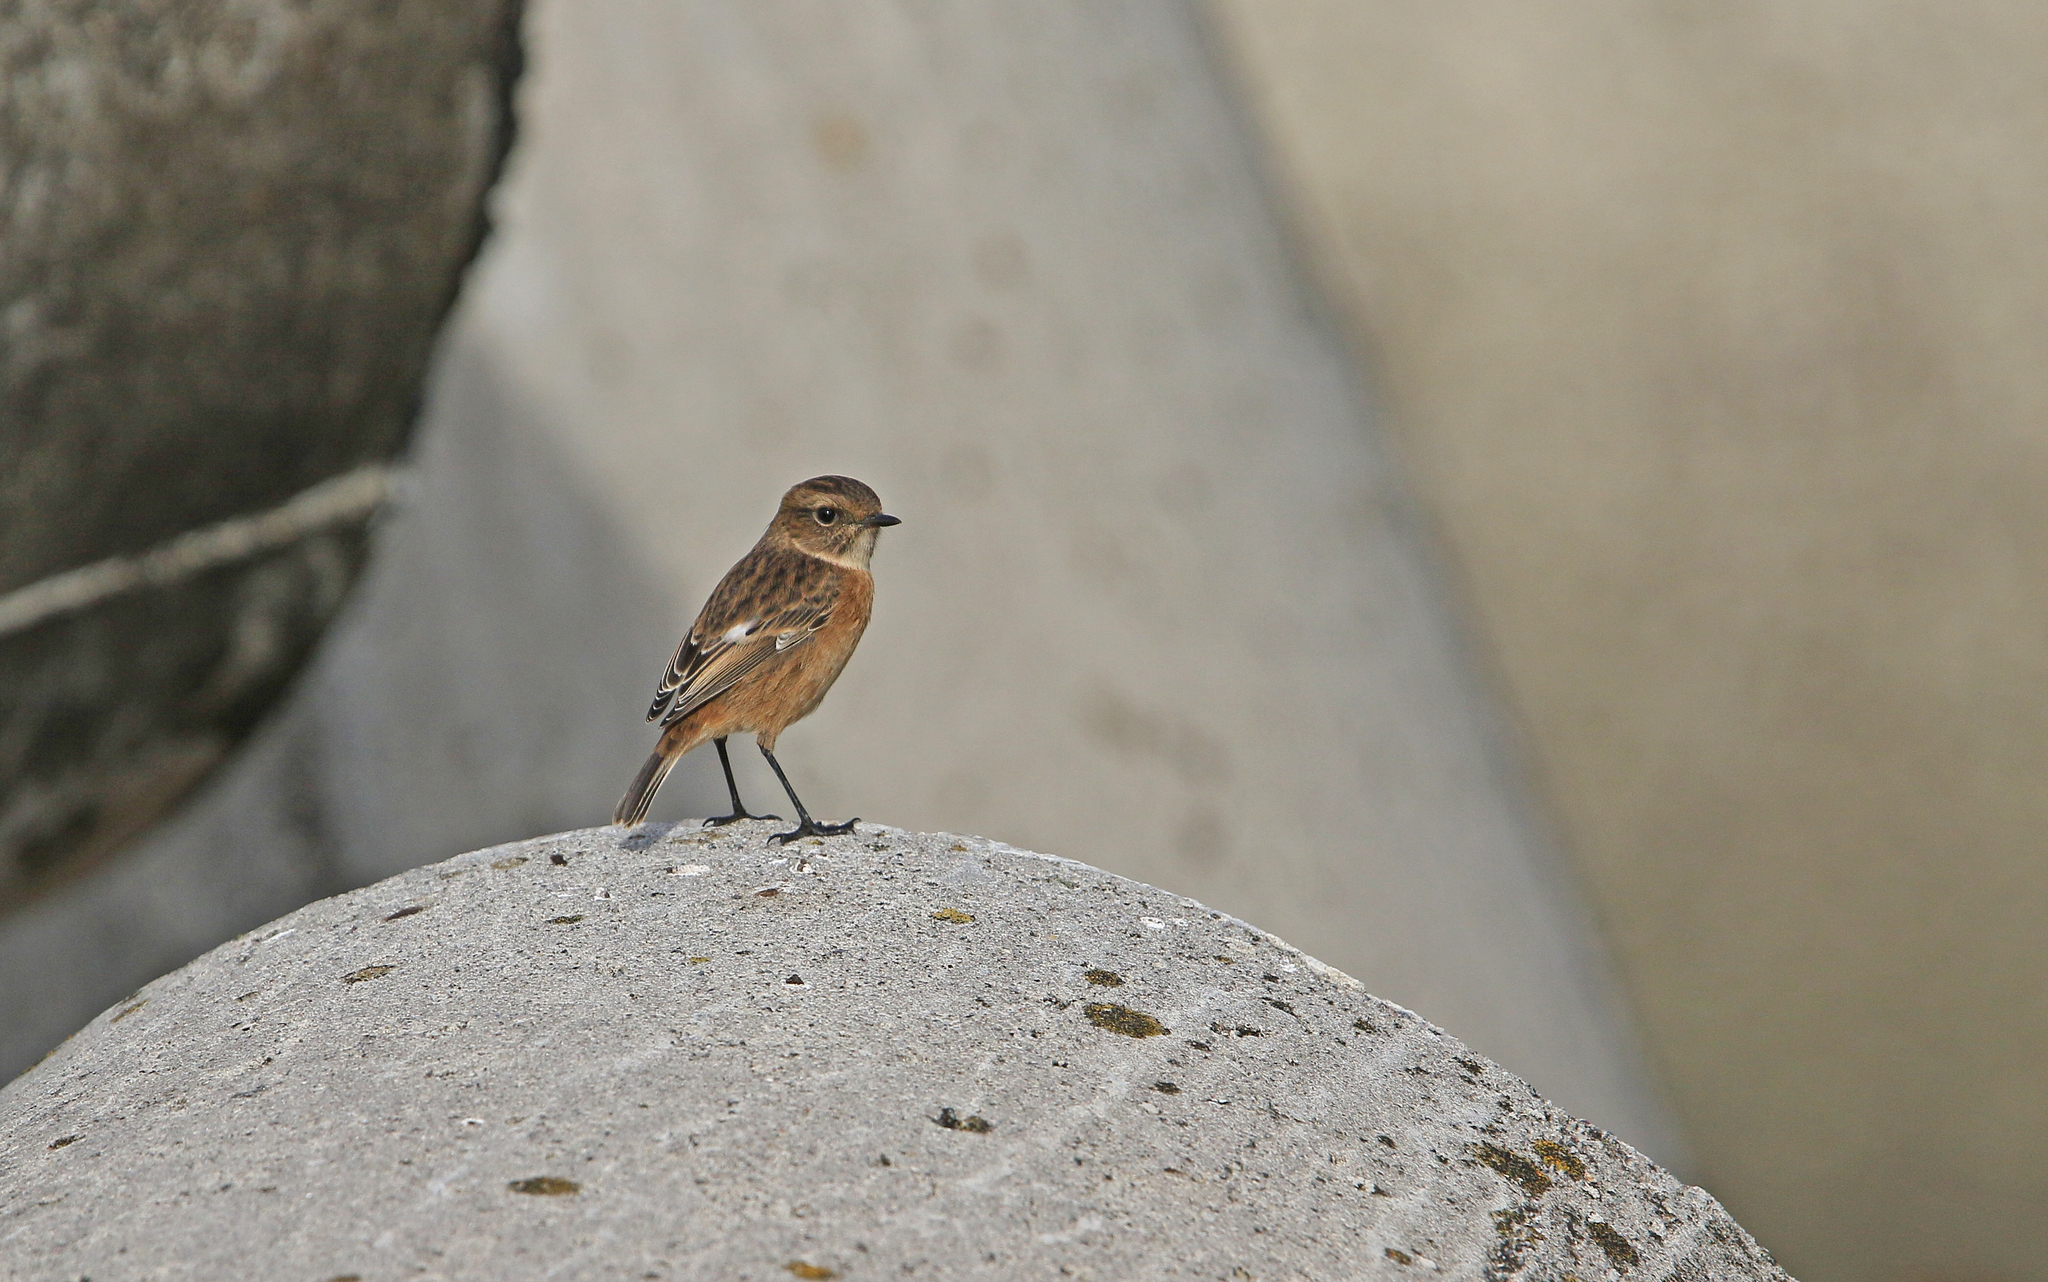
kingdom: Animalia
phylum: Chordata
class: Aves
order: Passeriformes
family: Muscicapidae
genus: Saxicola
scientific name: Saxicola rubicola
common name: European stonechat
